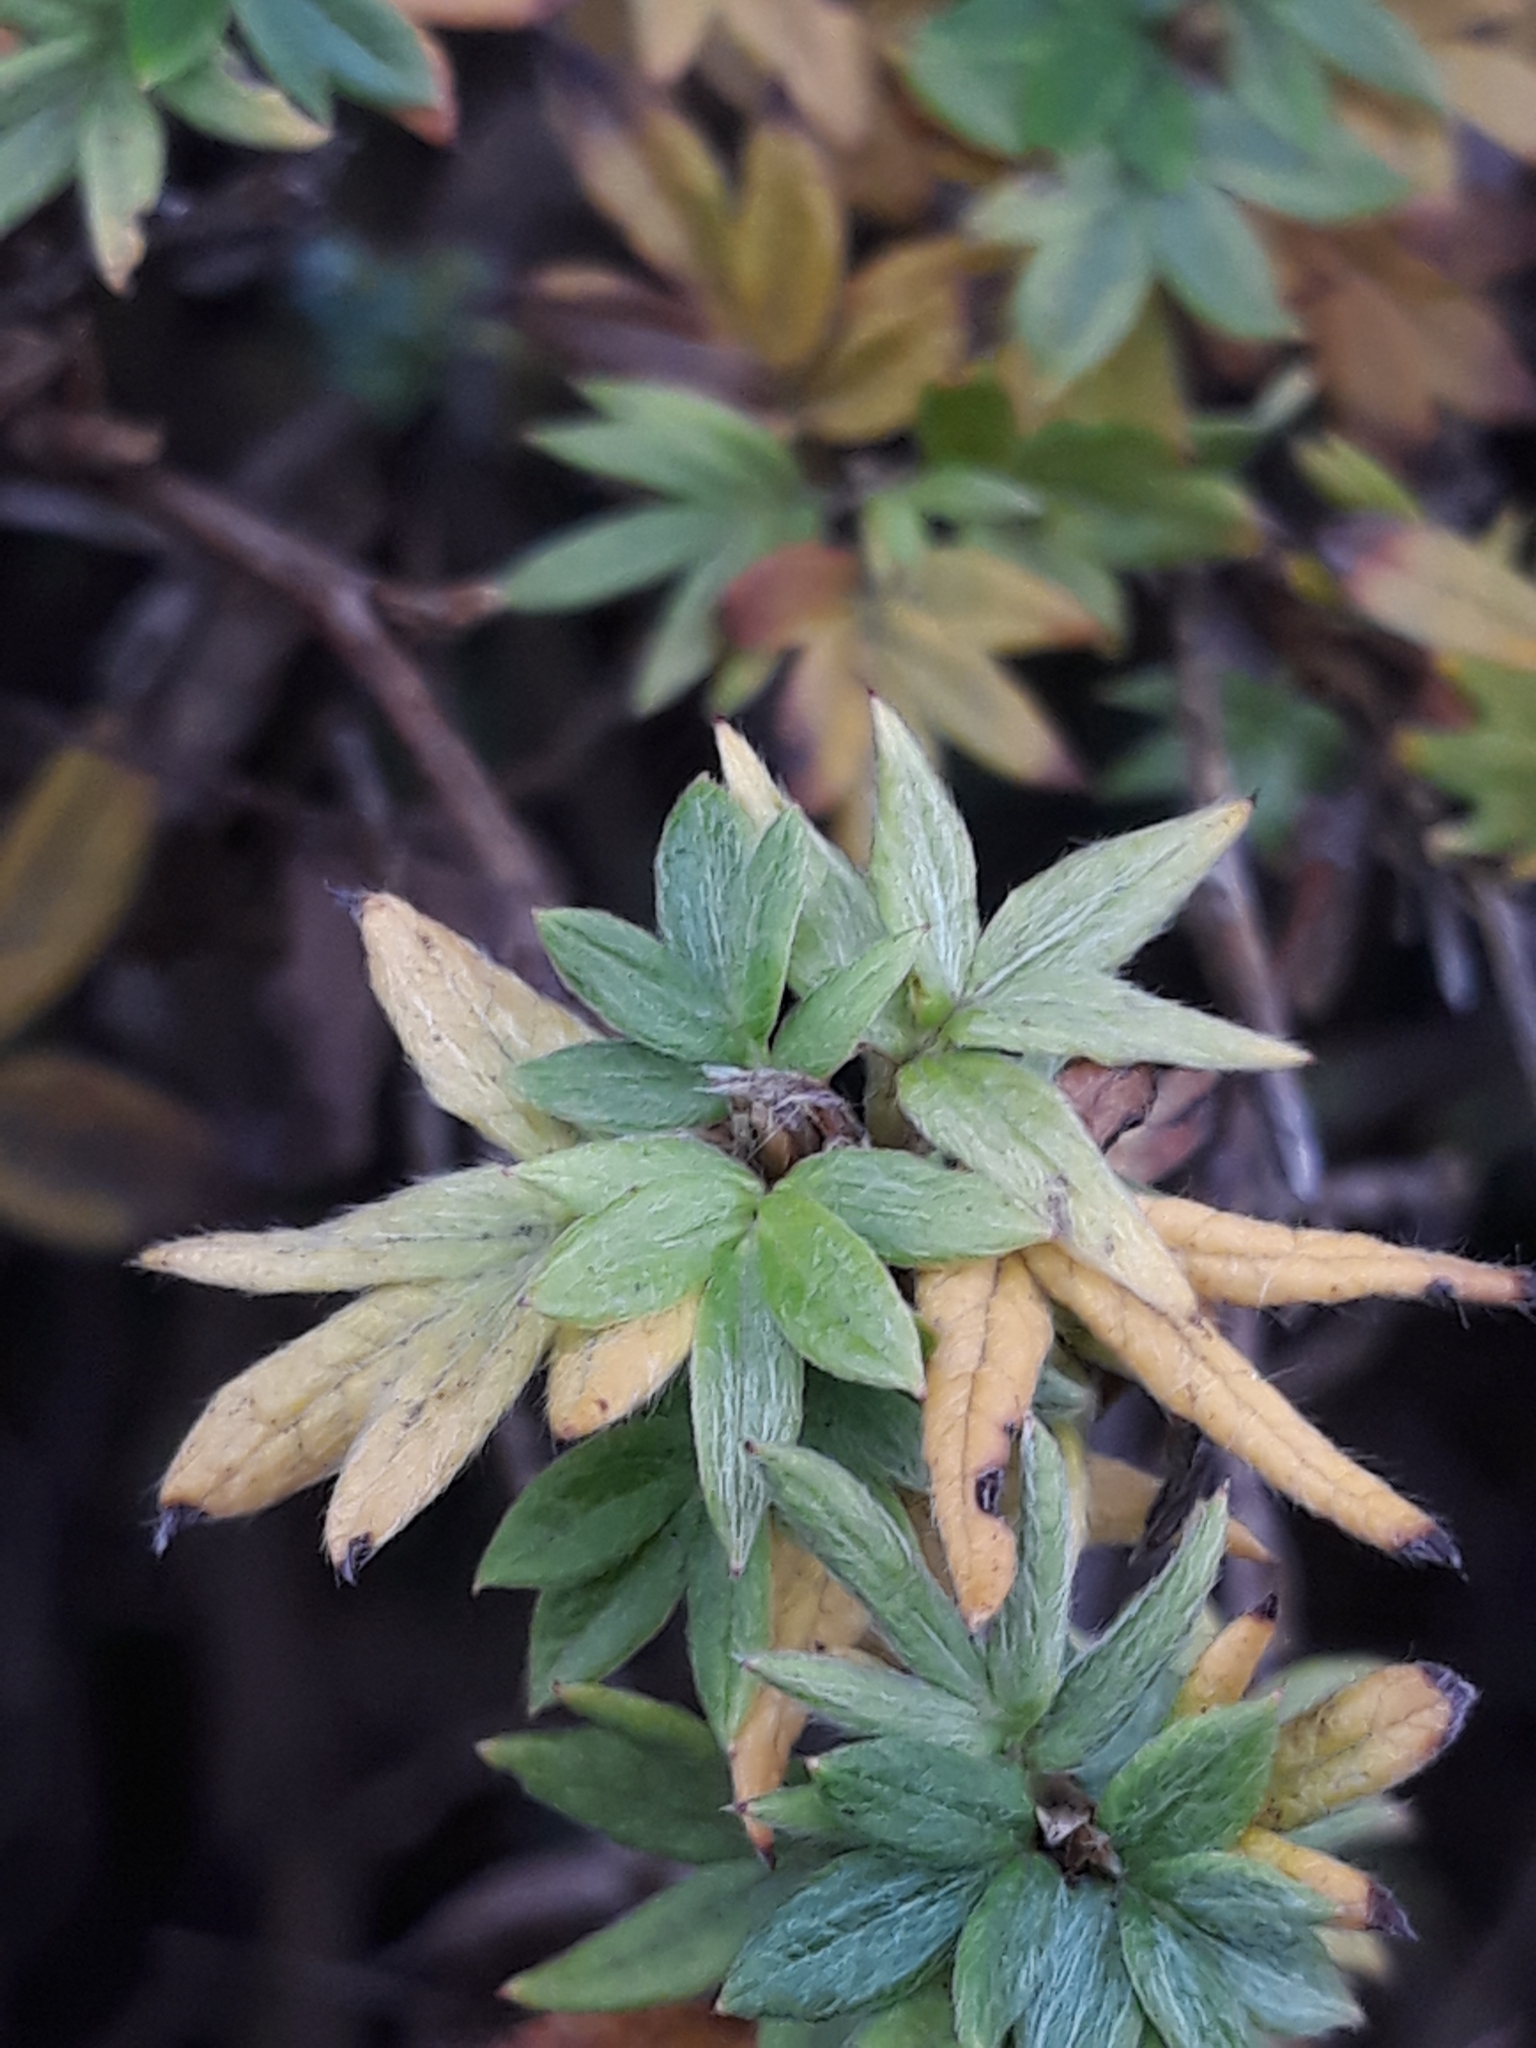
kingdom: Plantae
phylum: Tracheophyta
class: Magnoliopsida
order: Rosales
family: Rosaceae
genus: Dasiphora
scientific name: Dasiphora fruticosa
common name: Shrubby cinquefoil
